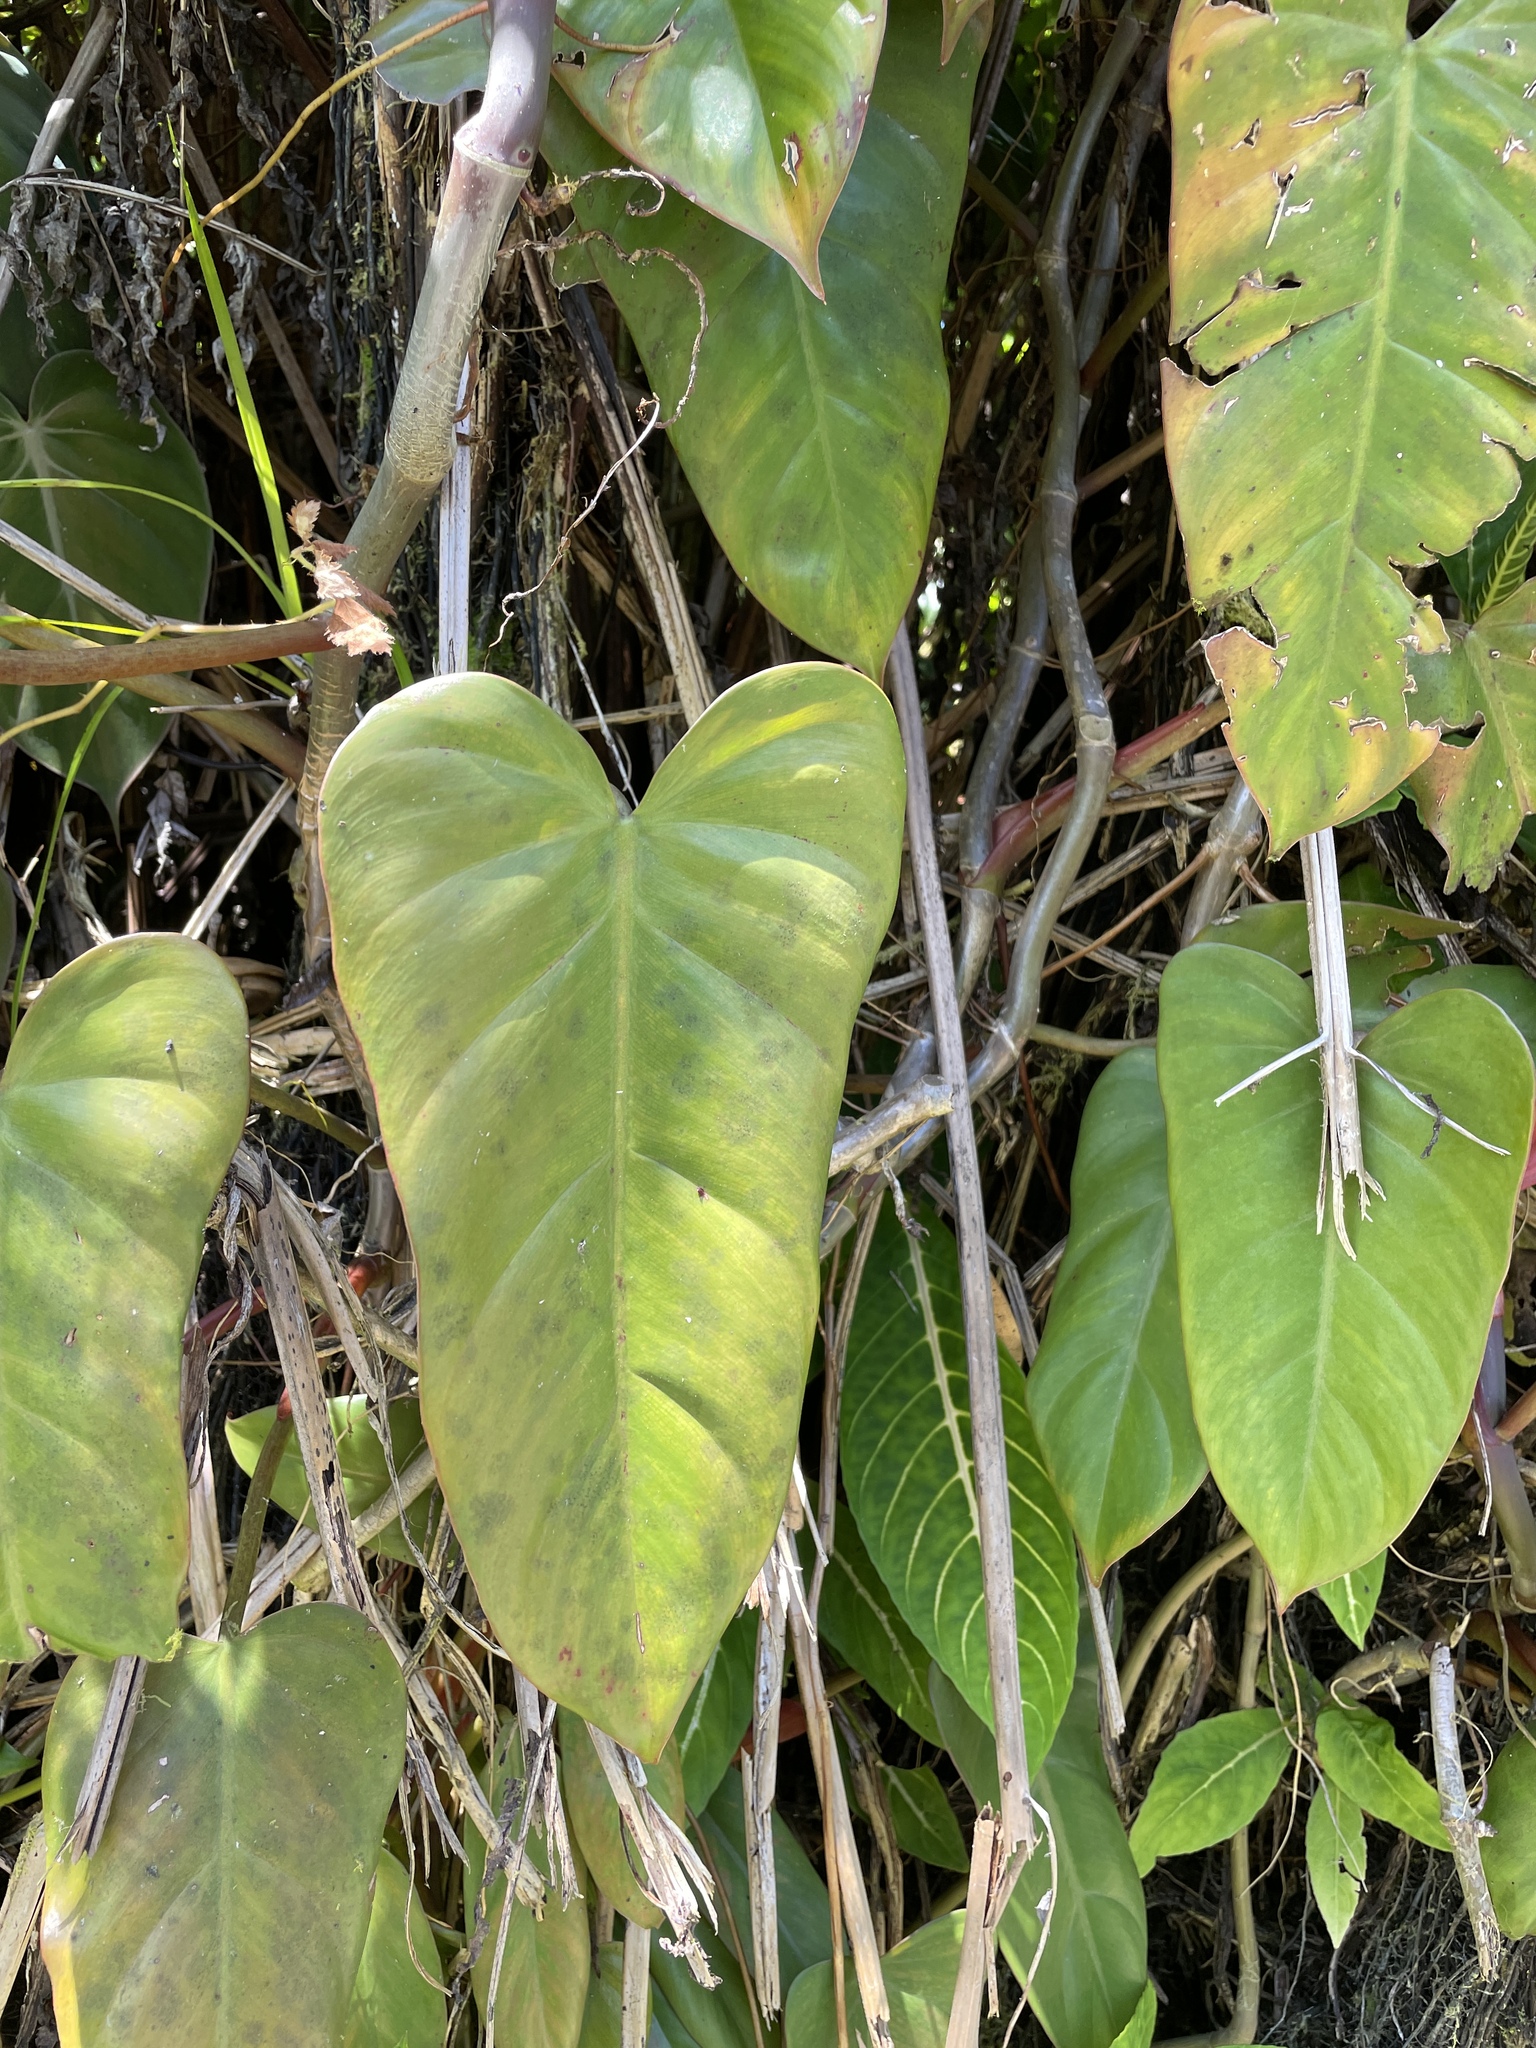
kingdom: Plantae
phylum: Tracheophyta
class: Liliopsida
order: Alismatales
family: Araceae
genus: Philodendron
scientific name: Philodendron erubescens
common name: Philodendron
